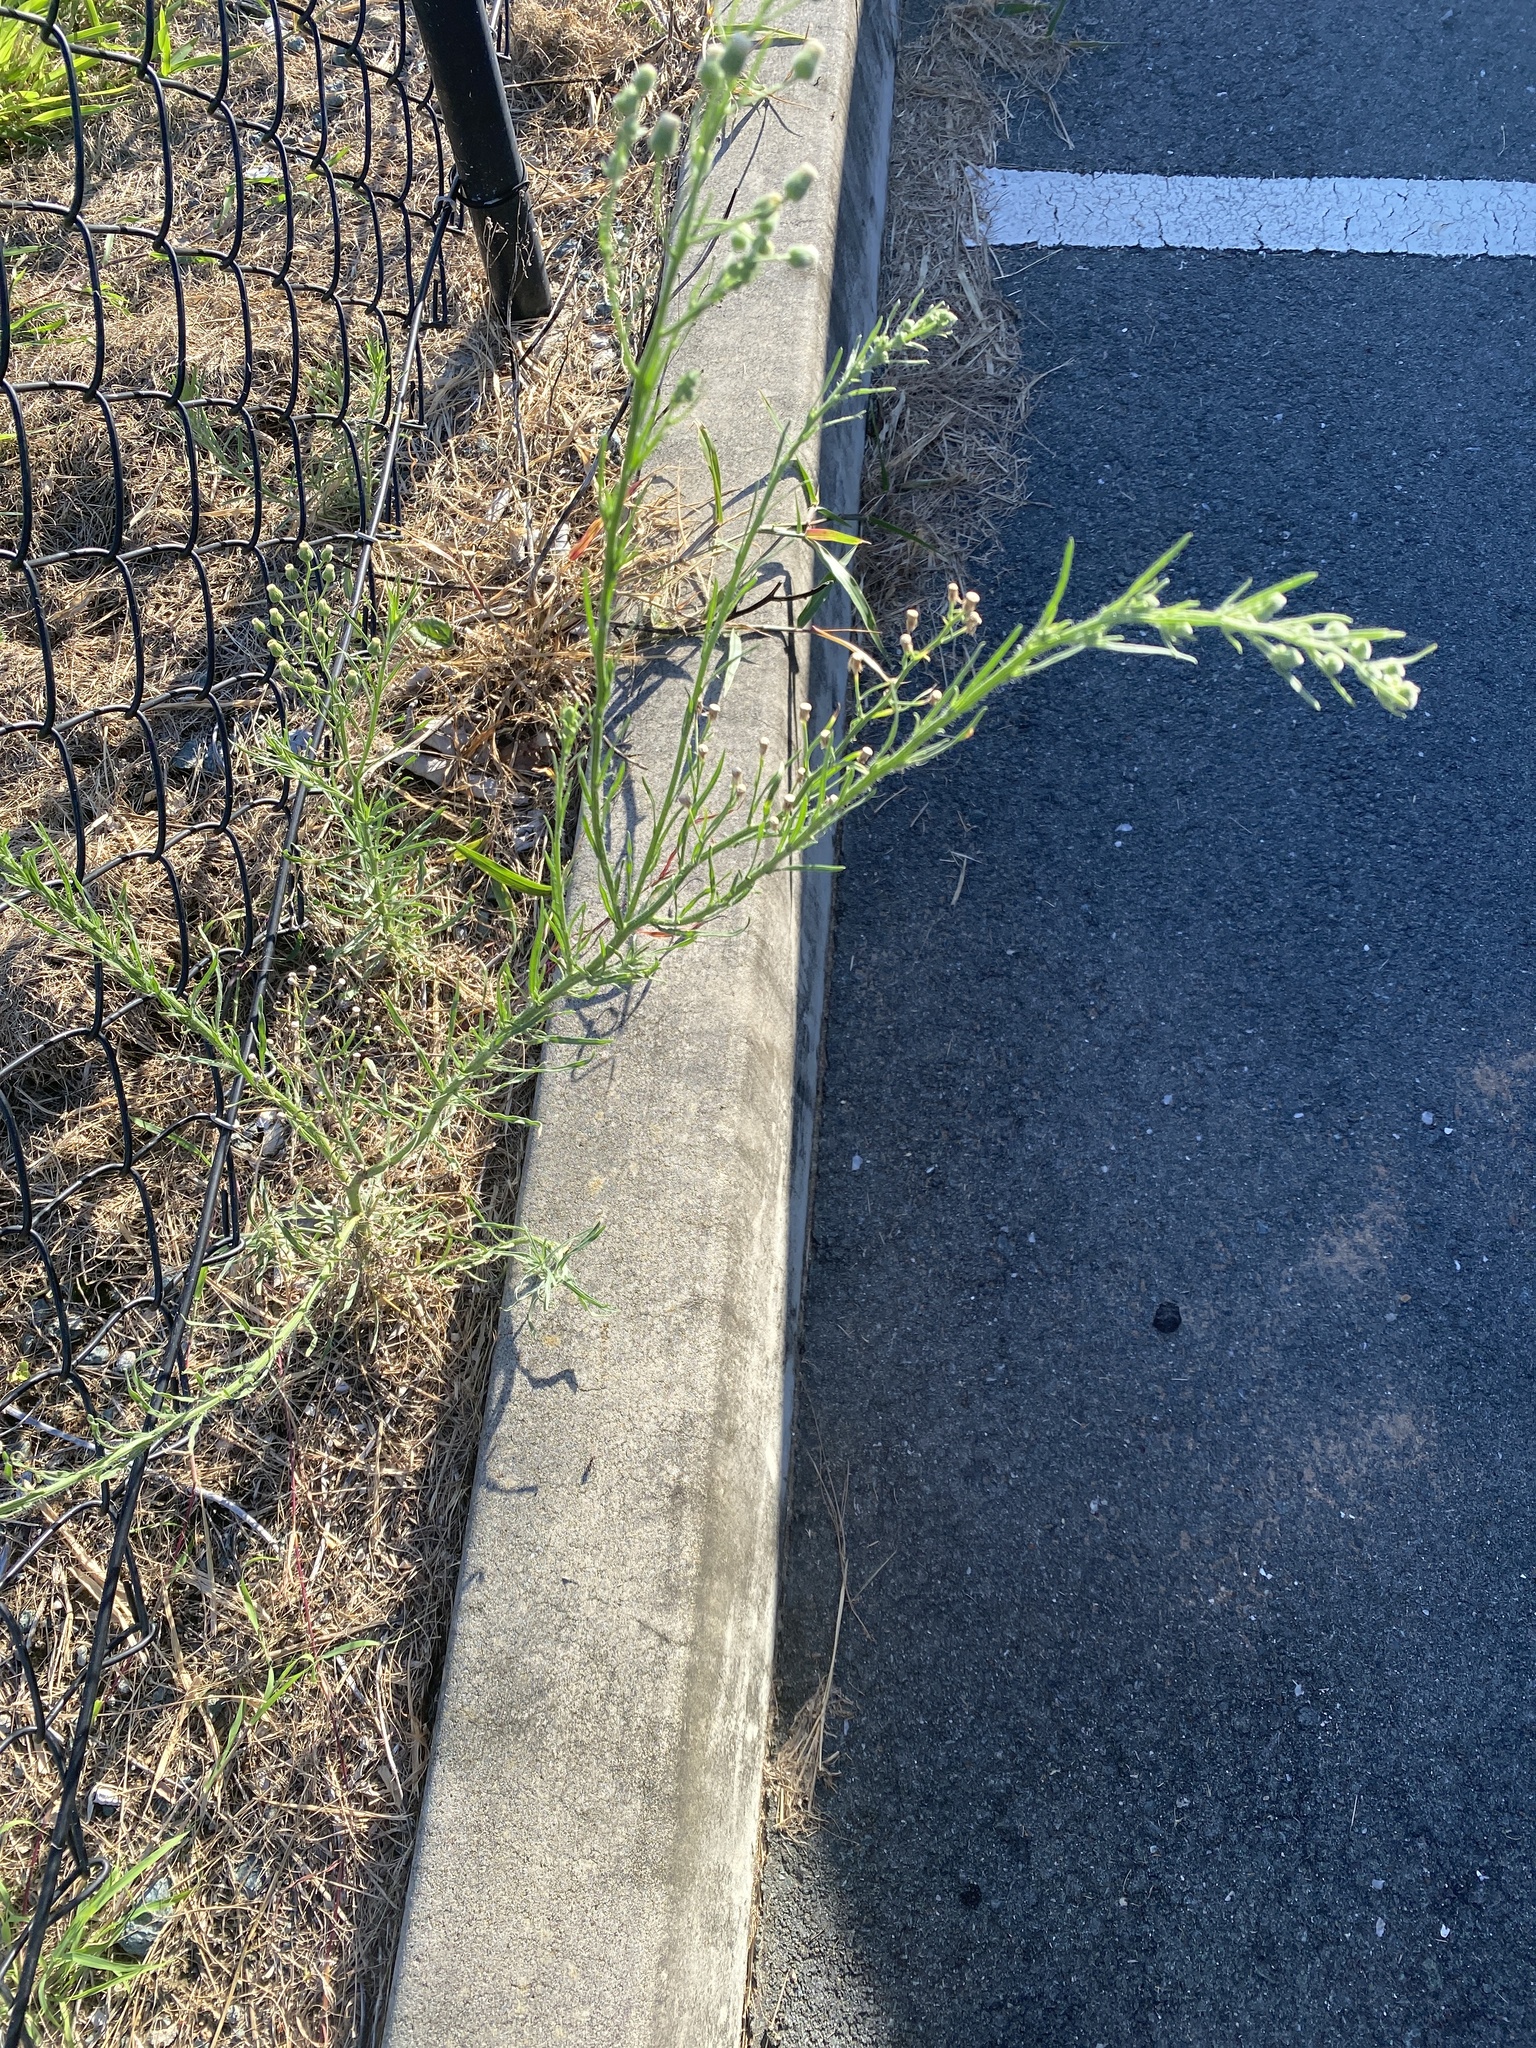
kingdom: Plantae
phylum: Tracheophyta
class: Magnoliopsida
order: Asterales
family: Asteraceae
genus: Erigeron
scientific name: Erigeron bonariensis
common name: Argentine fleabane
